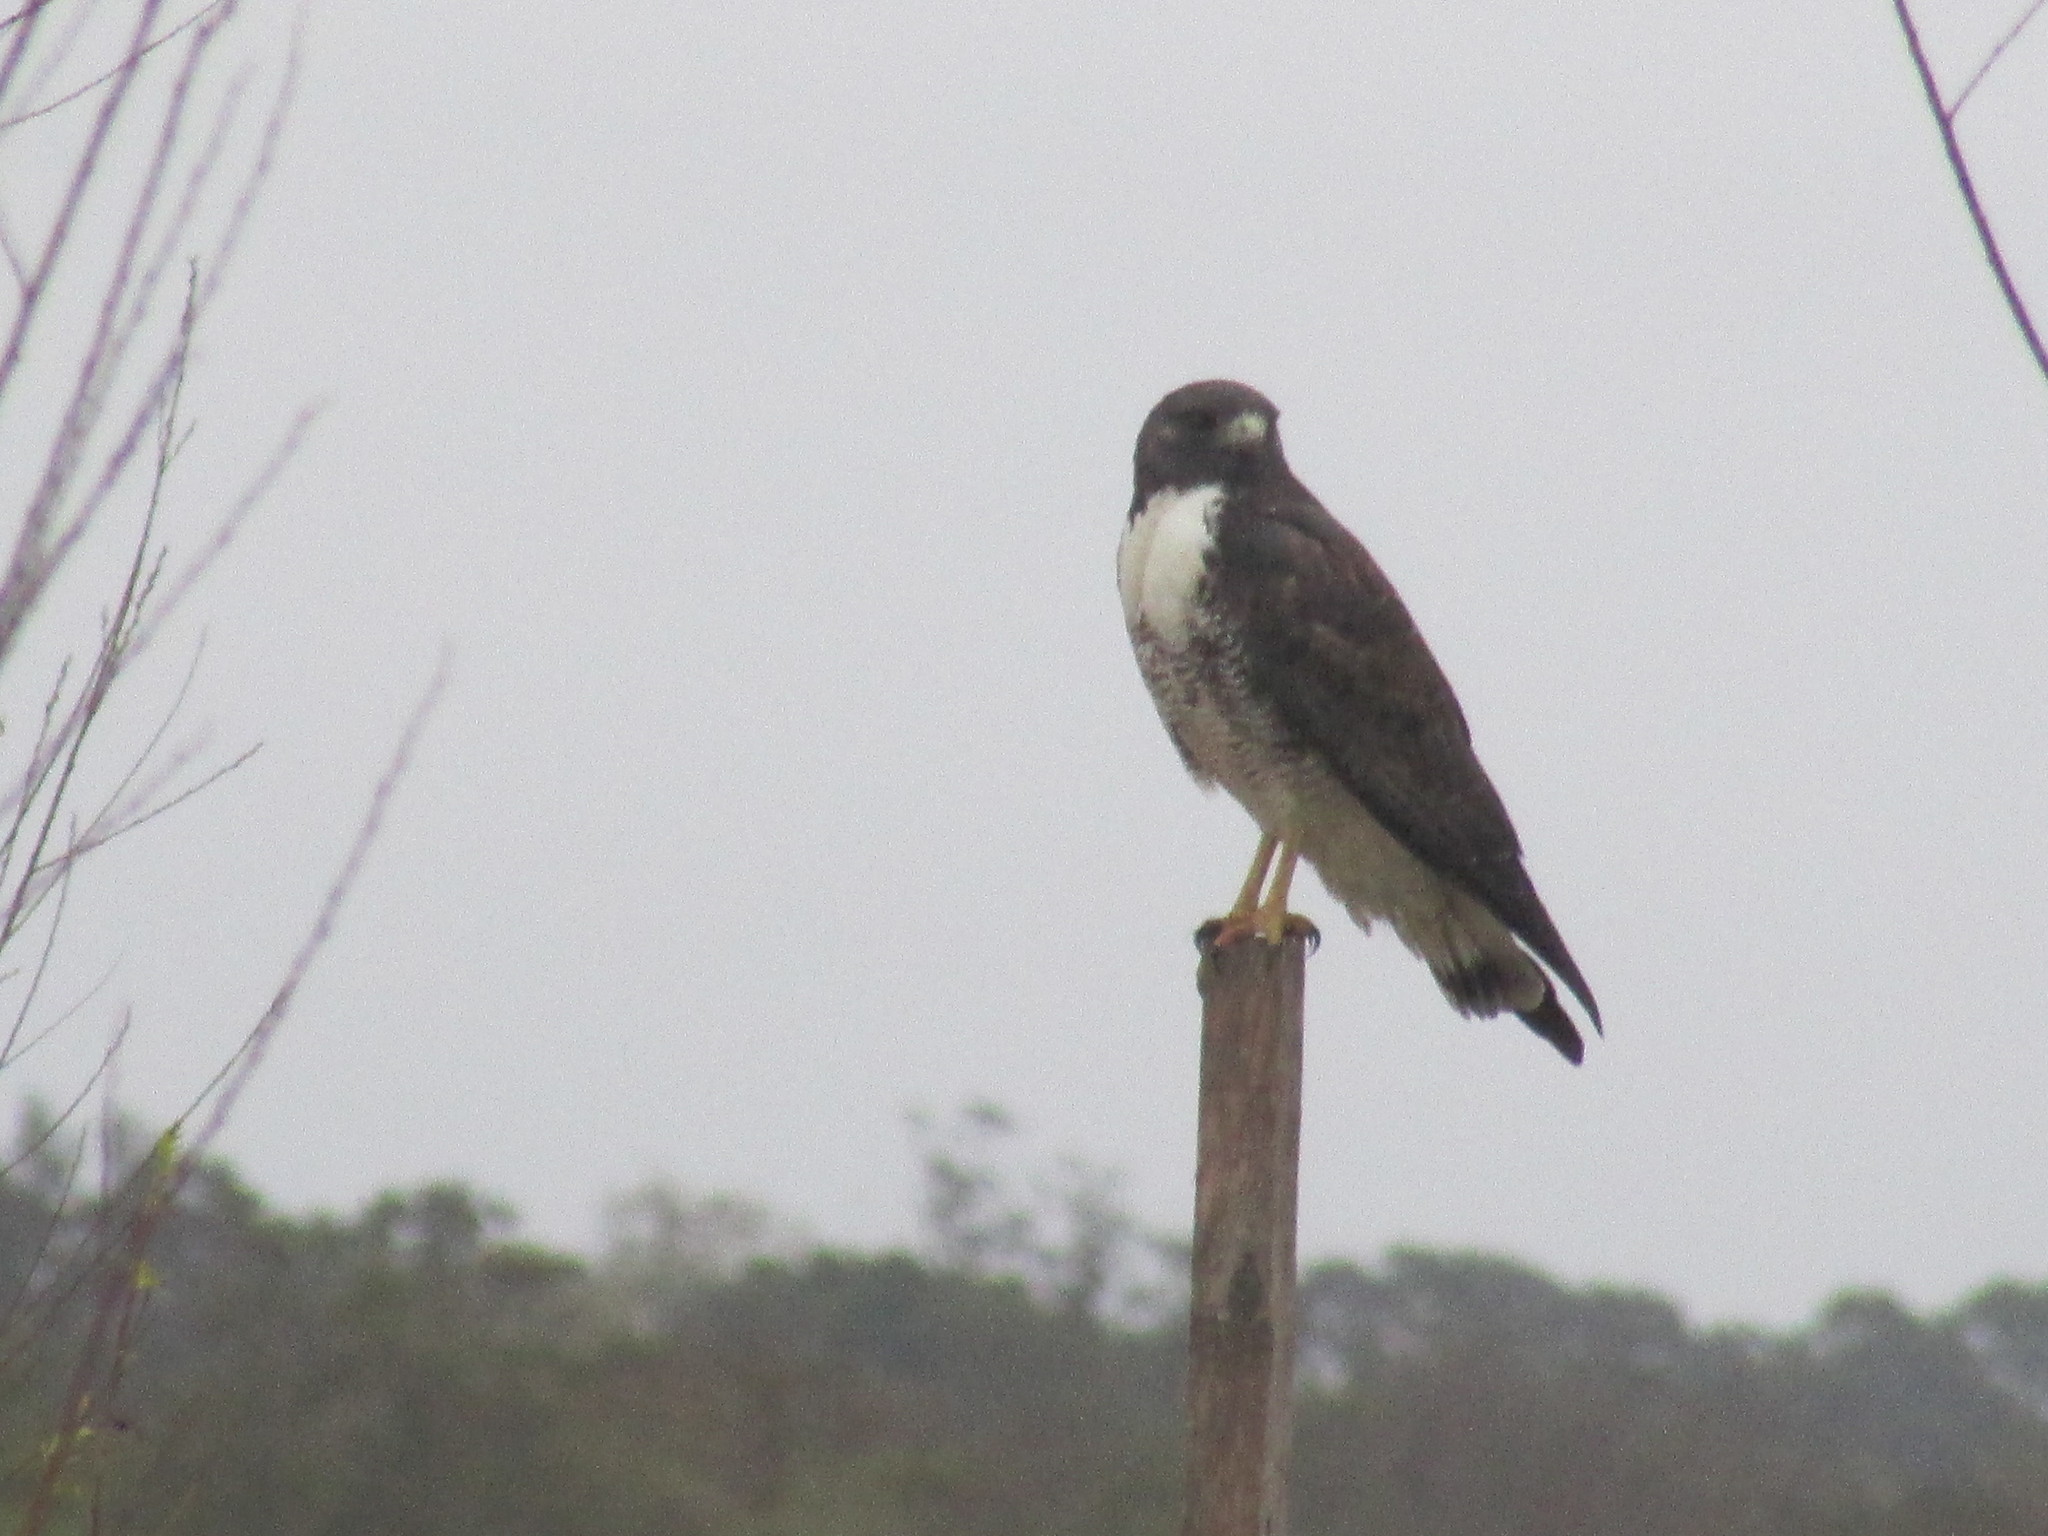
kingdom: Animalia
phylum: Chordata
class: Aves
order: Accipitriformes
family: Accipitridae
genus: Buteo
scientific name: Buteo albicaudatus
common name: White-tailed hawk
